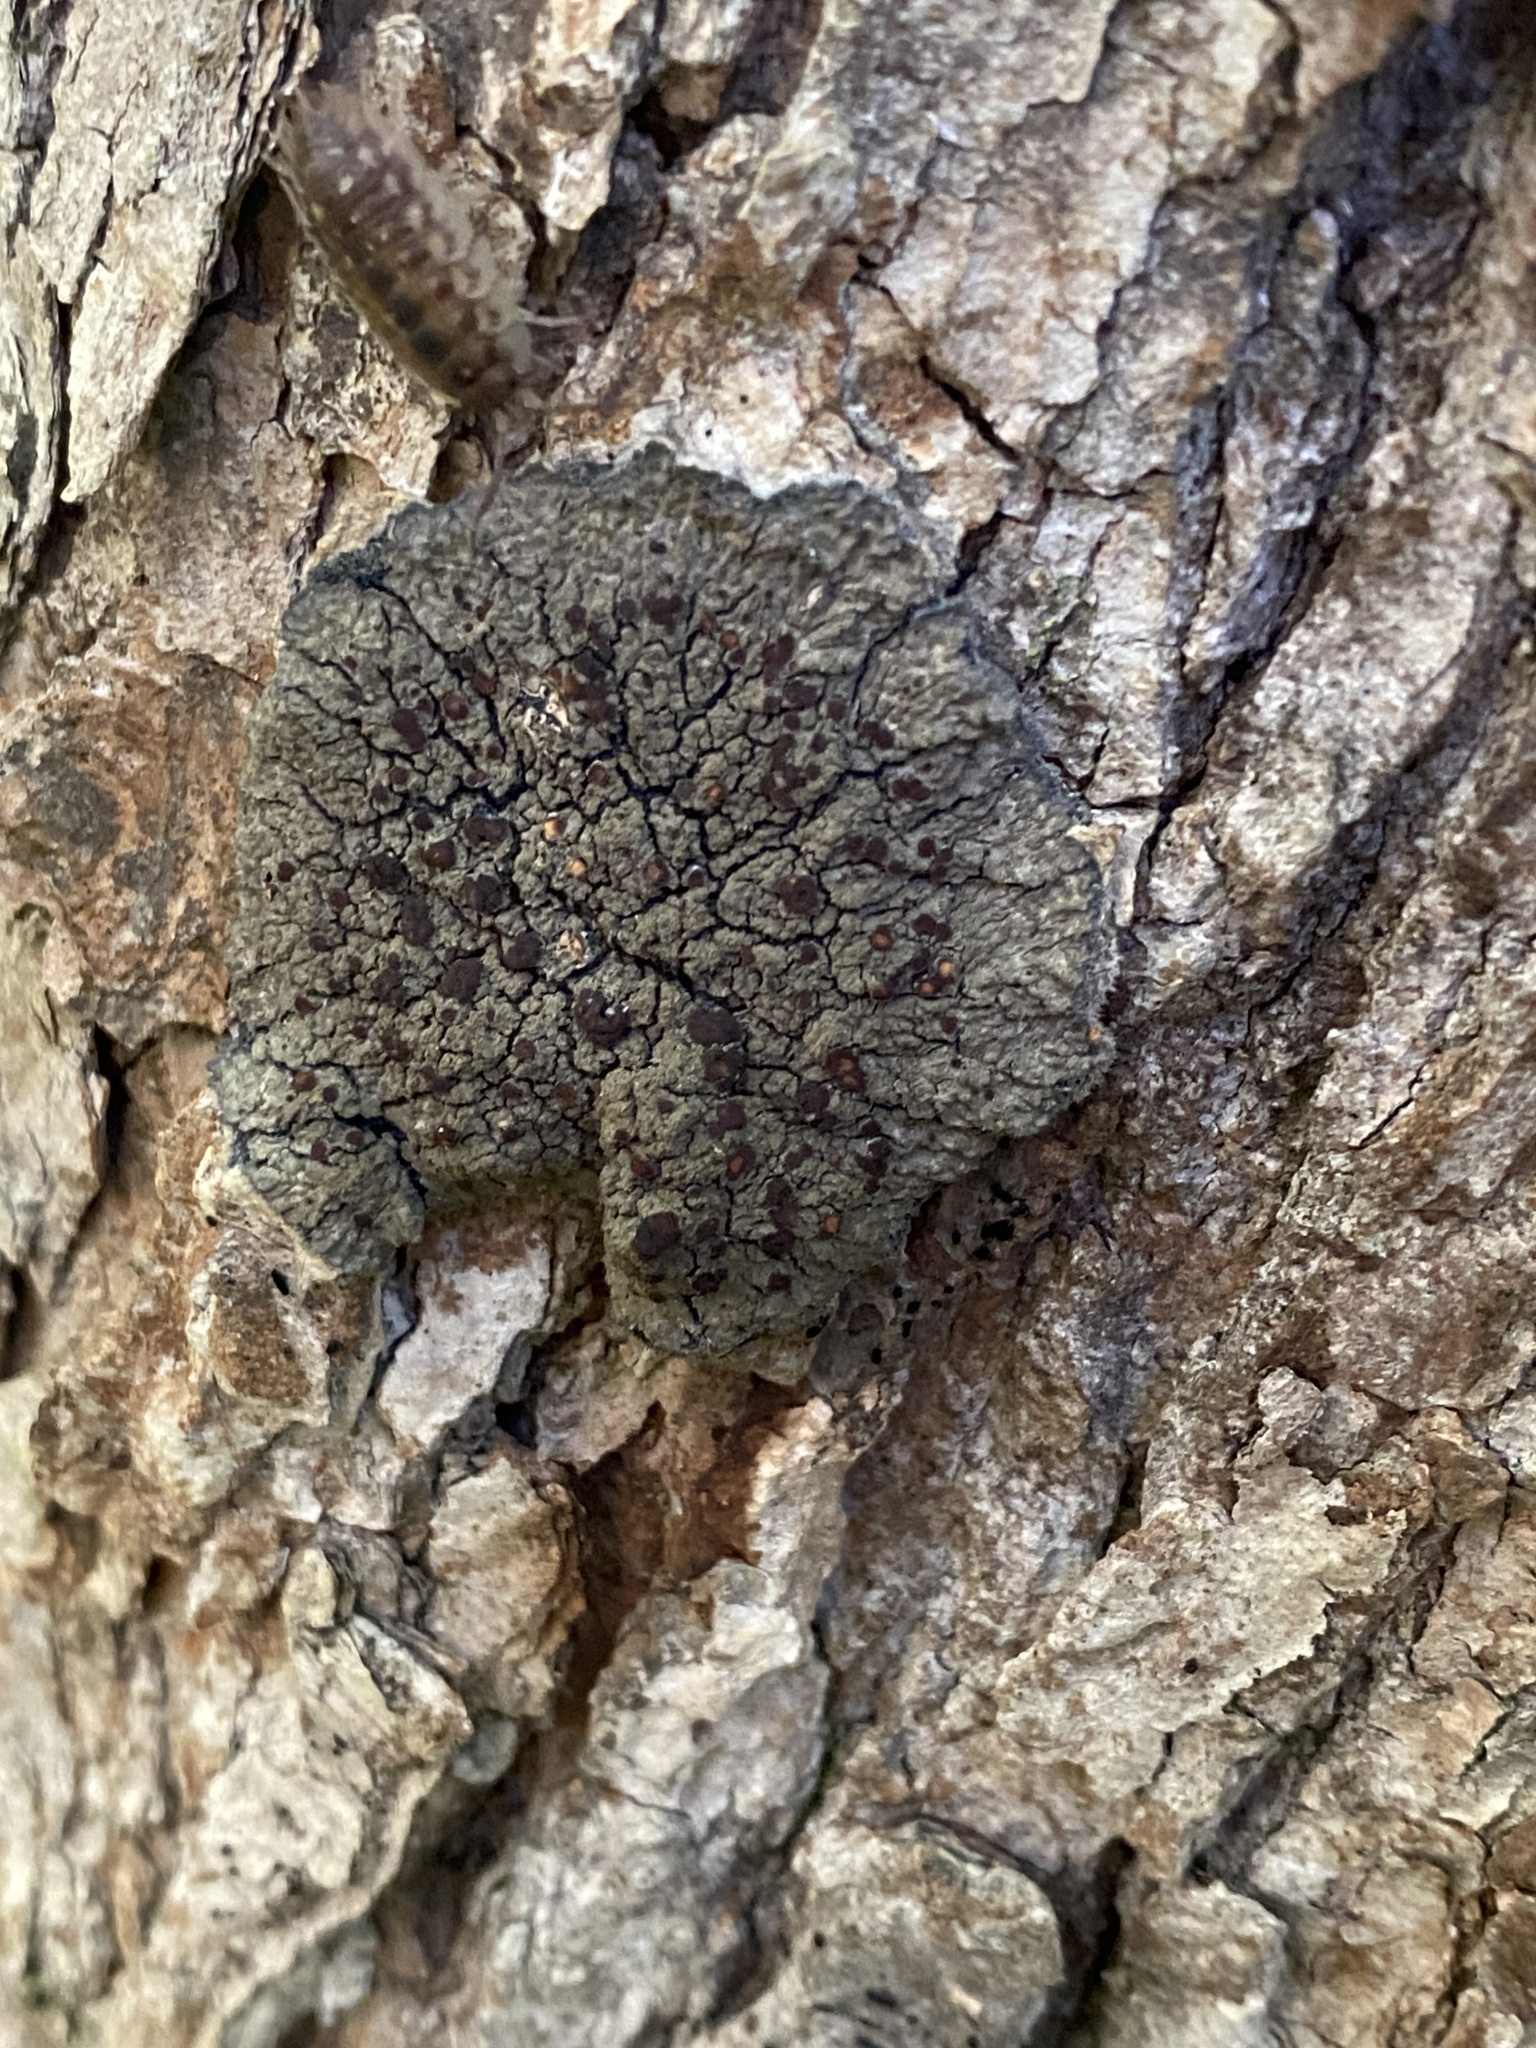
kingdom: Fungi
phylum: Ascomycota
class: Lecanoromycetes
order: Peltigerales
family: Pannariaceae
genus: Pectenia
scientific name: Pectenia plumbea
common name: Bladder stalks
